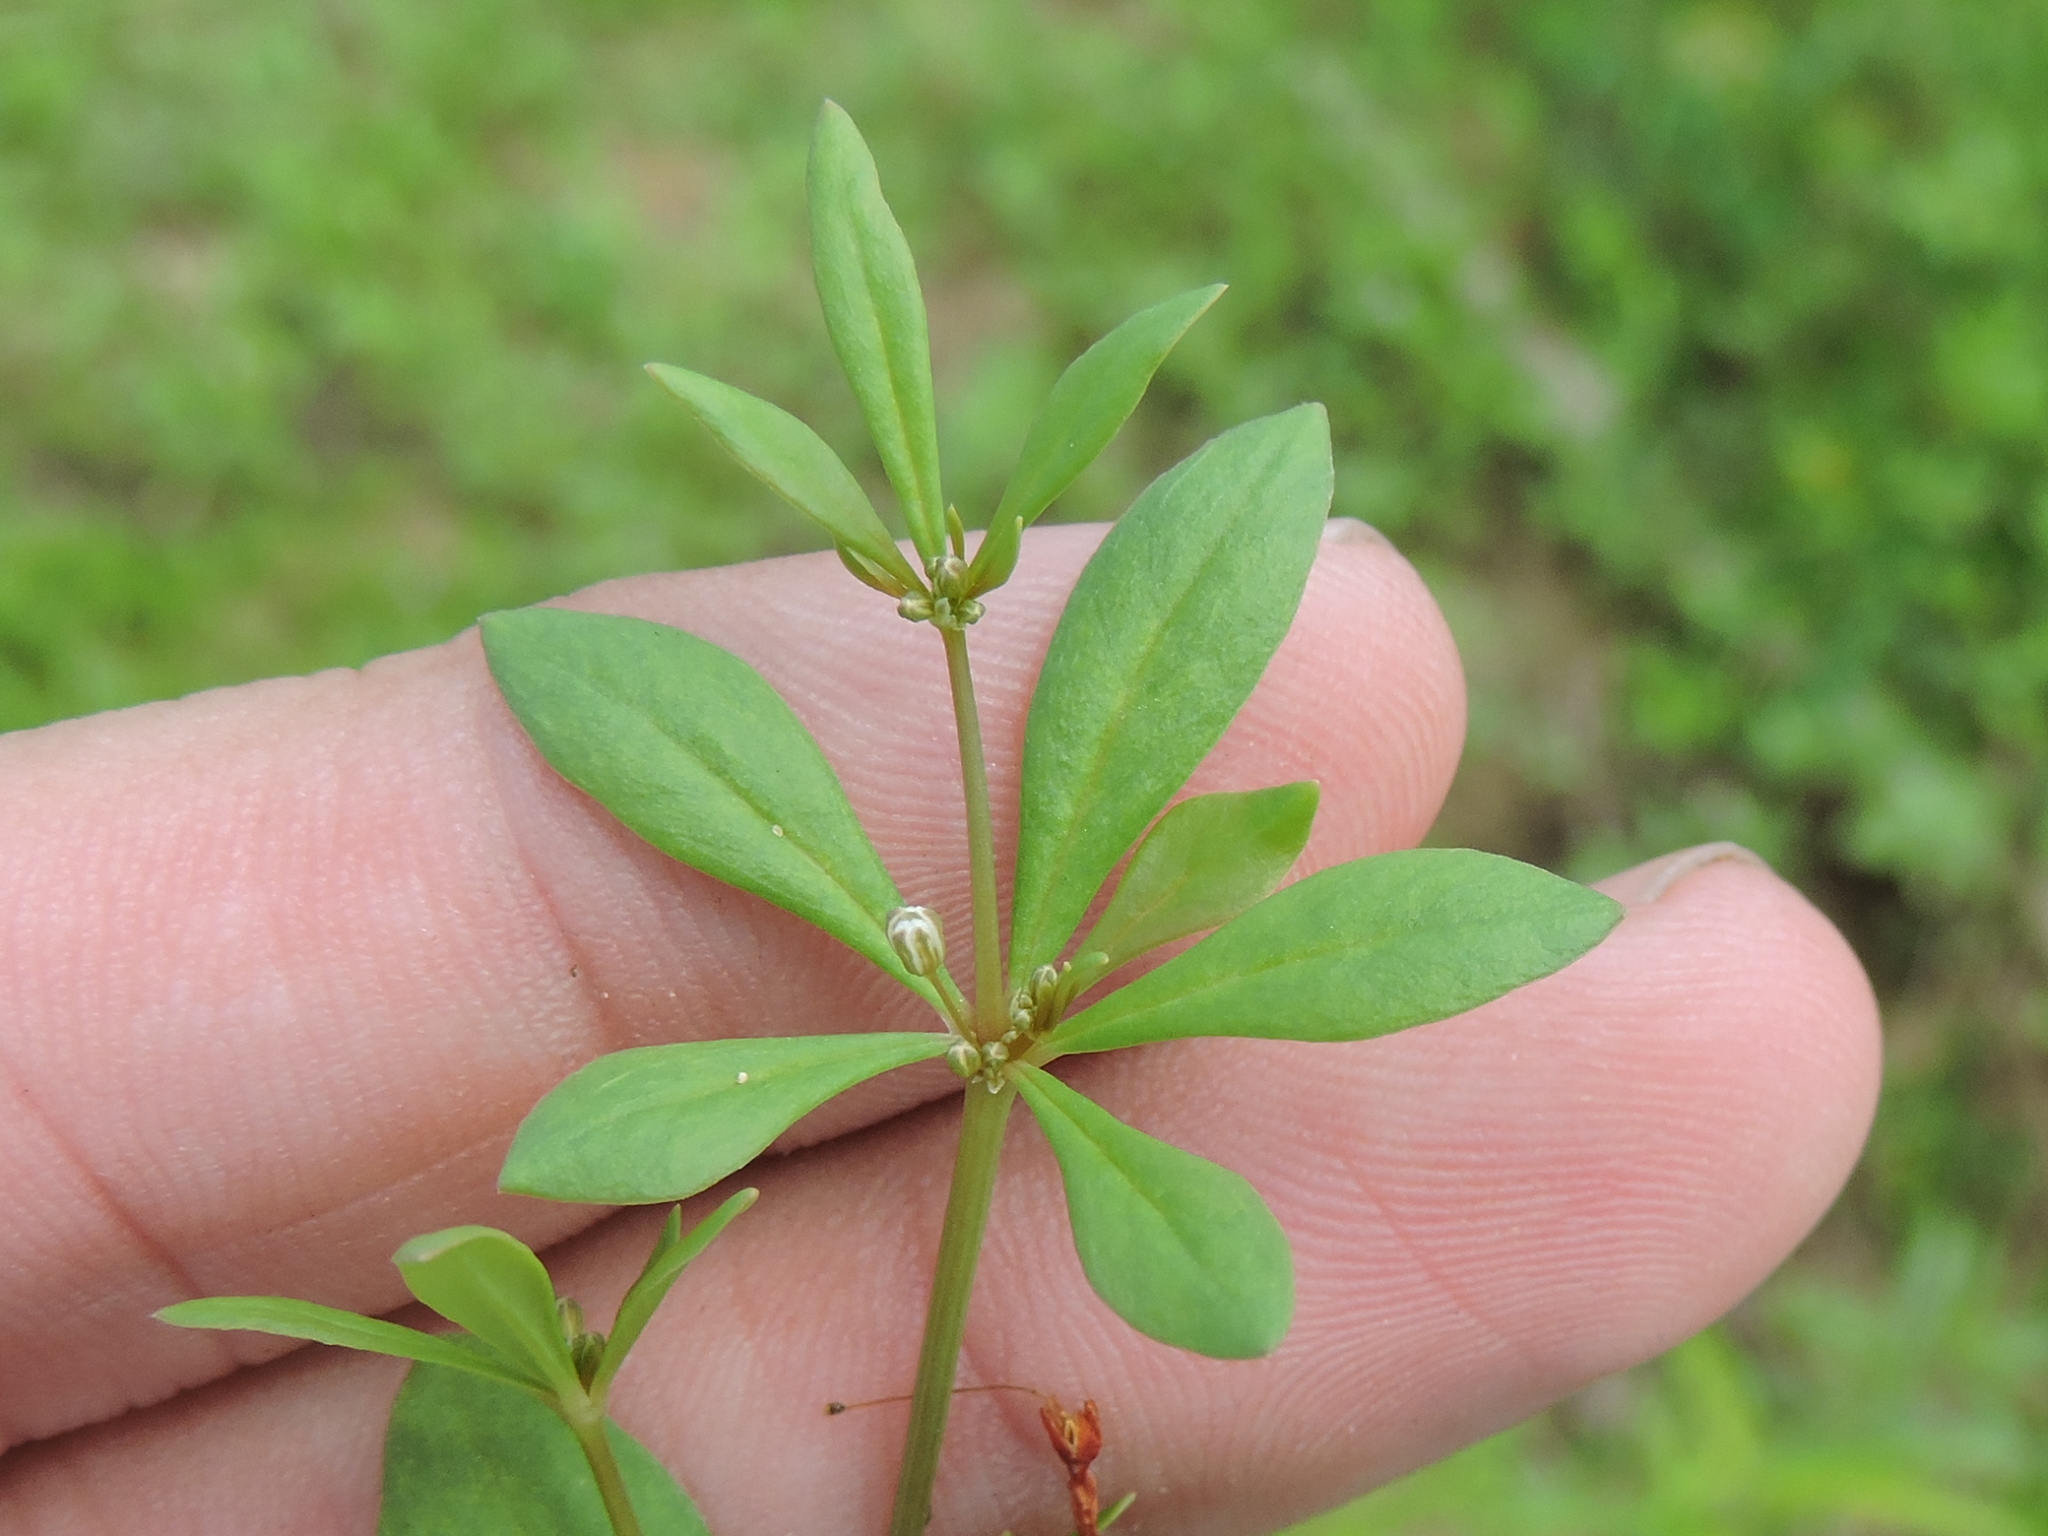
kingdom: Plantae
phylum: Tracheophyta
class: Magnoliopsida
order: Caryophyllales
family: Molluginaceae
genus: Mollugo
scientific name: Mollugo verticillata
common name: Green carpetweed
